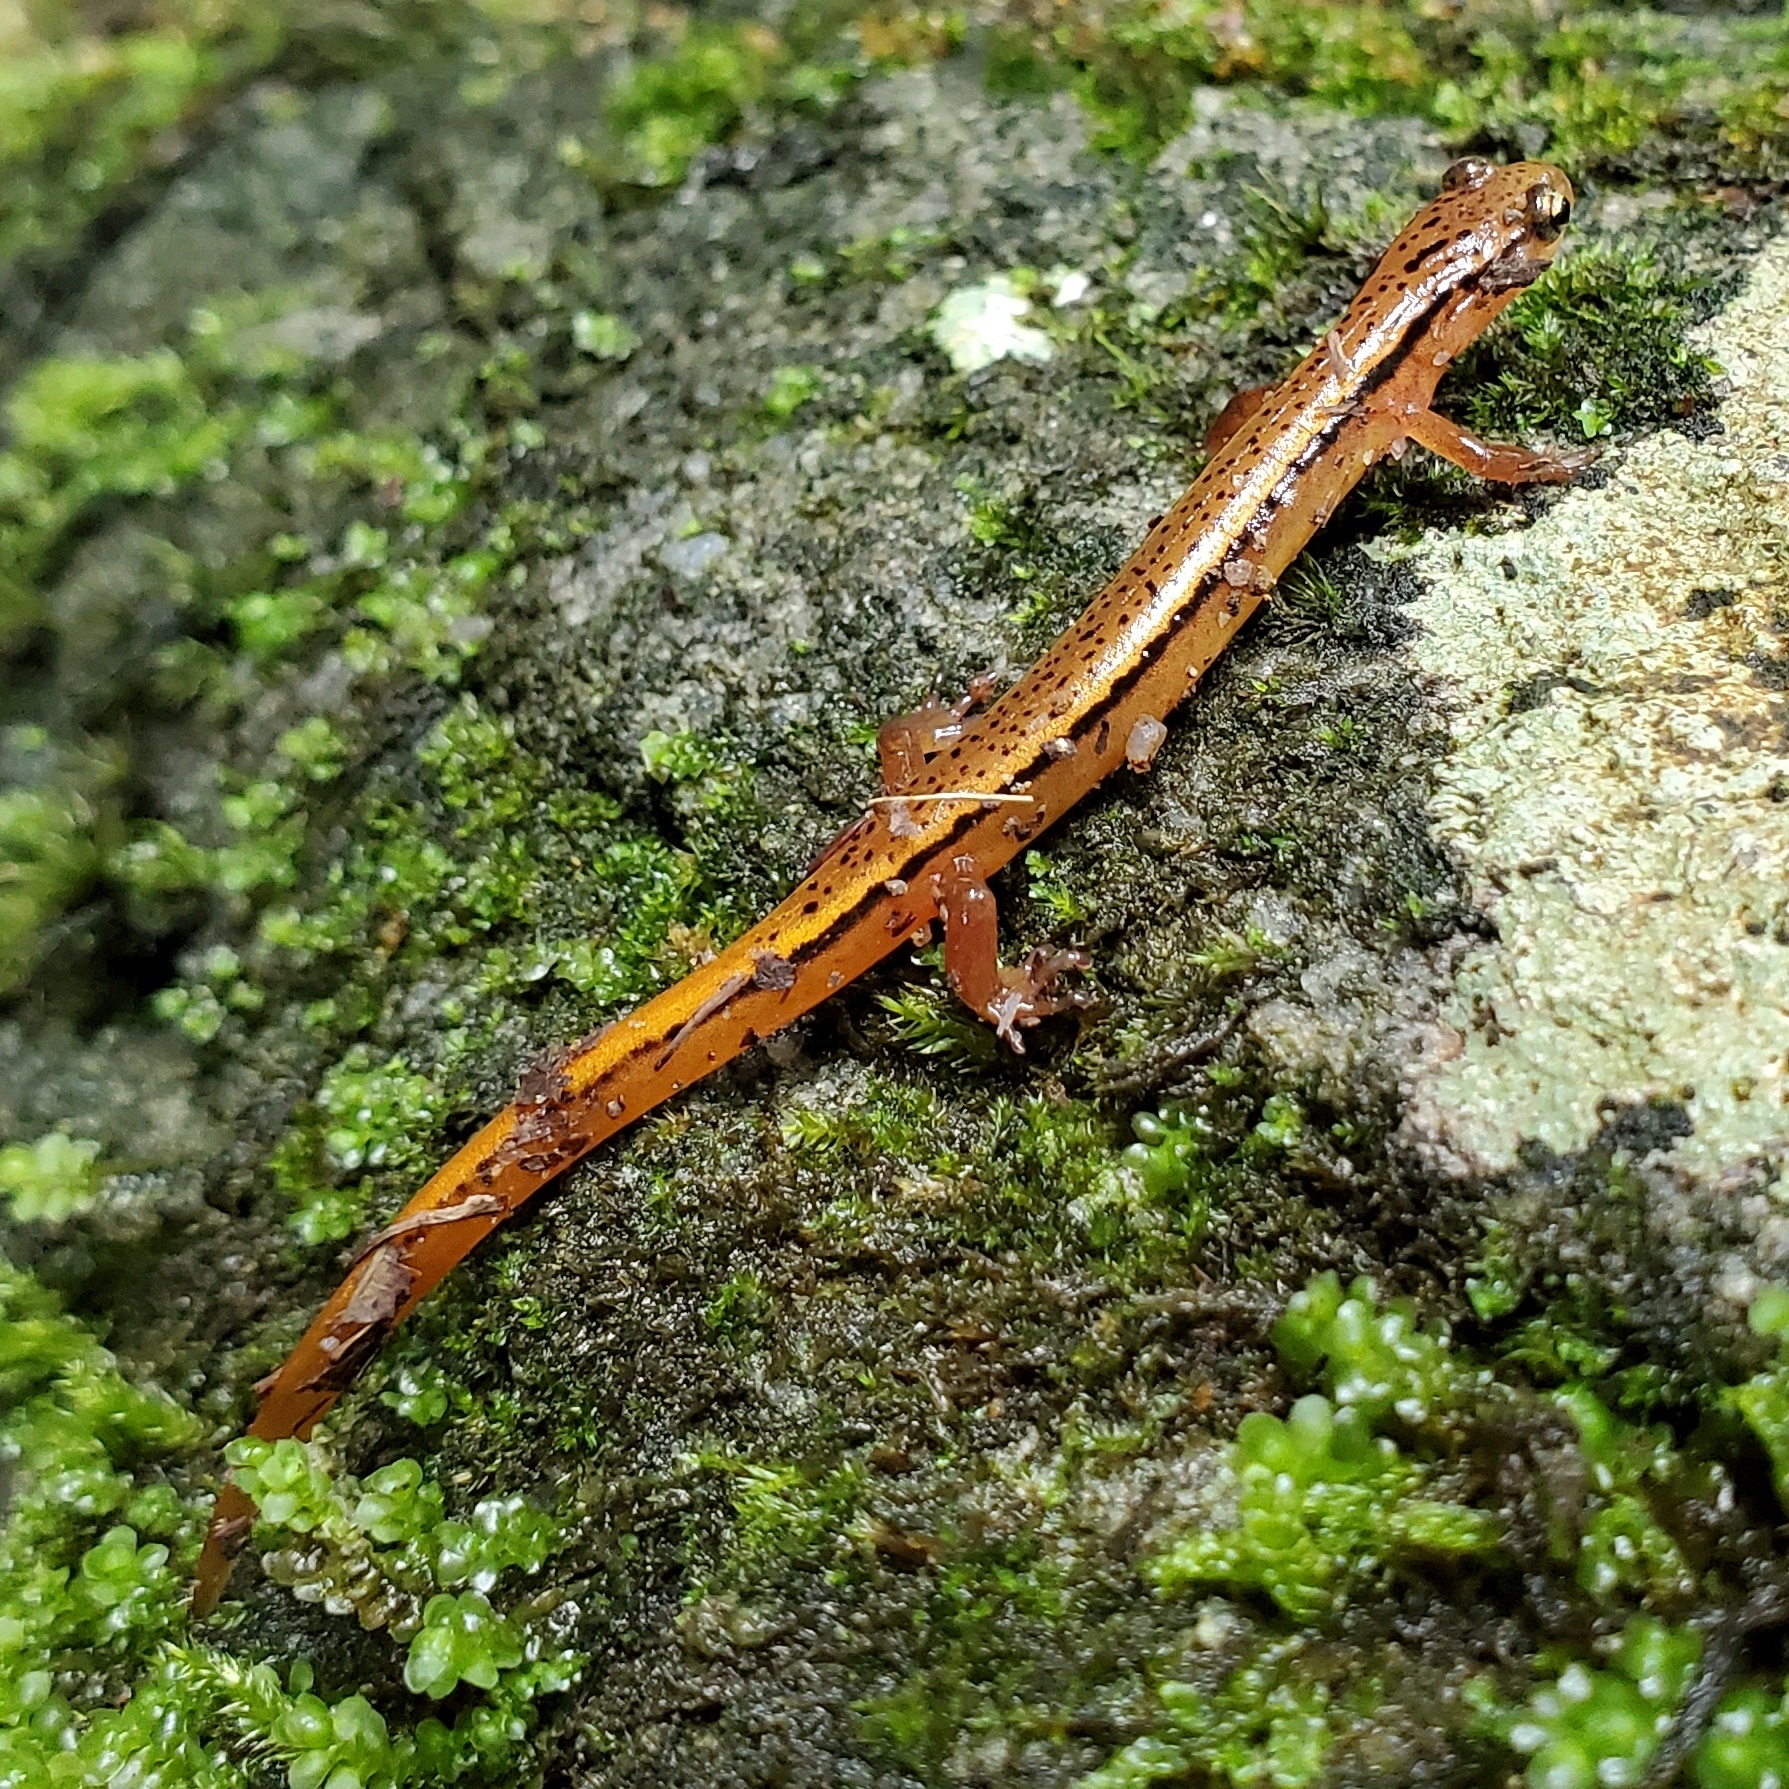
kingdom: Animalia
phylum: Chordata
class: Amphibia
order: Caudata
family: Plethodontidae
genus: Eurycea
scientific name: Eurycea wilderae
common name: Blue ridge two-lined salamander
